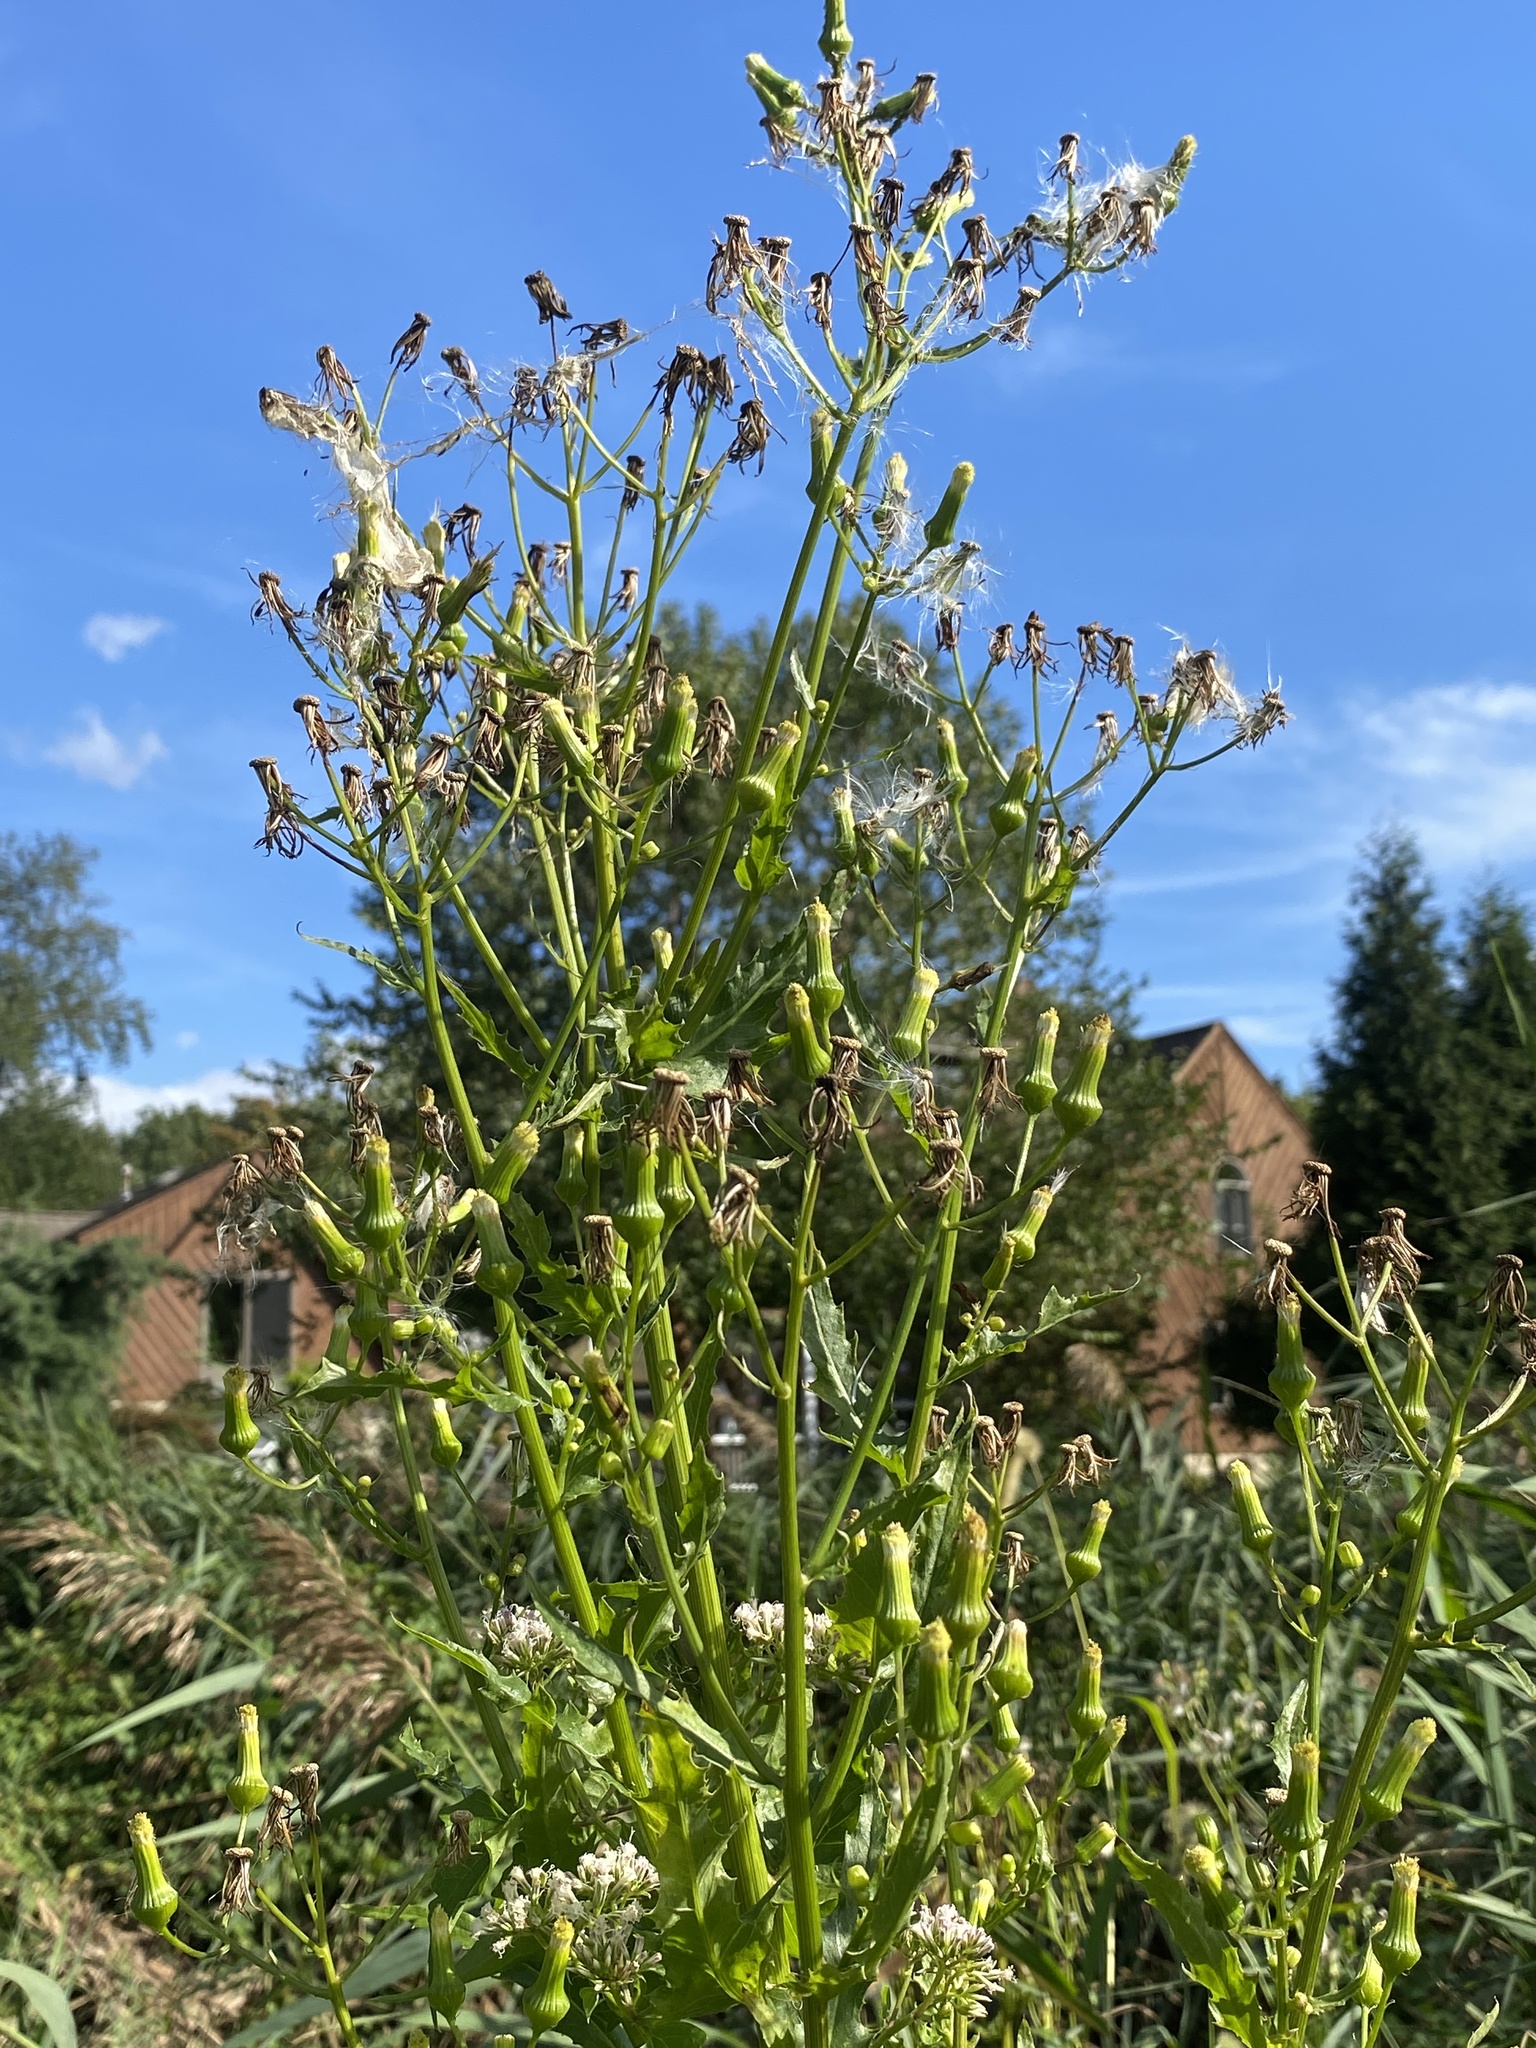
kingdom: Plantae
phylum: Tracheophyta
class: Magnoliopsida
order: Asterales
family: Asteraceae
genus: Erechtites
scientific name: Erechtites hieraciifolius
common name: American burnweed
